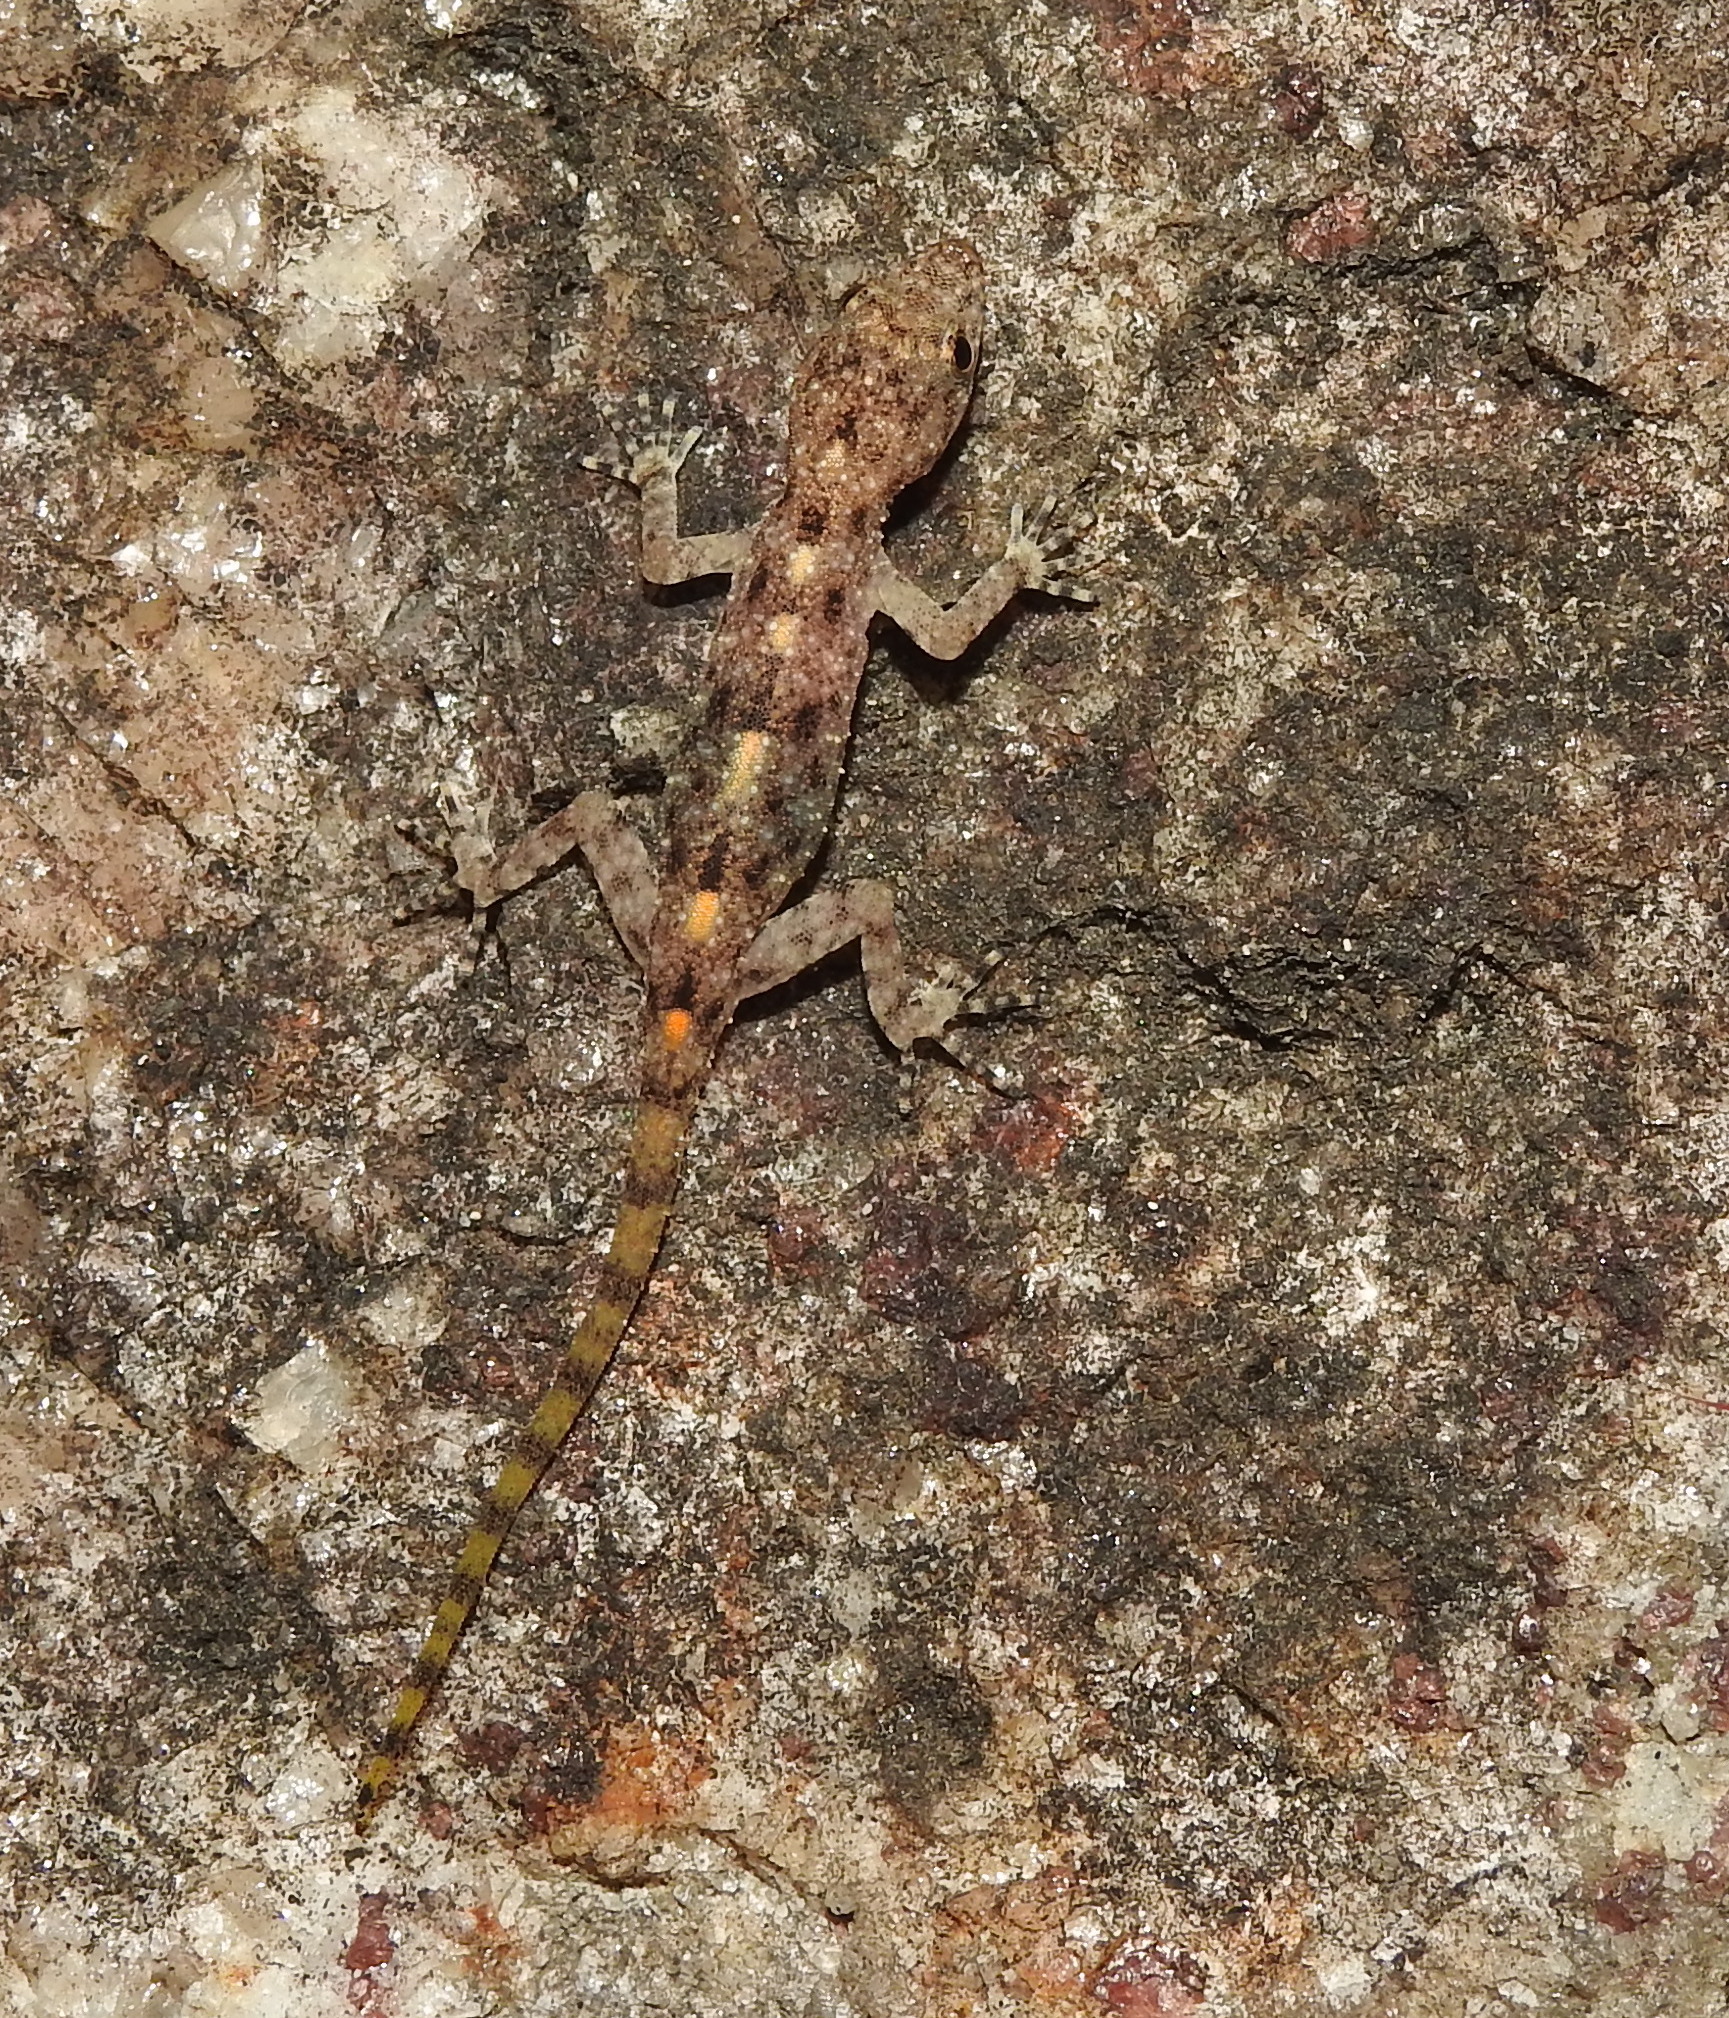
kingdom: Animalia
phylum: Chordata
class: Squamata
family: Gekkonidae
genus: Cnemaspis
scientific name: Cnemaspis kalakadensis
